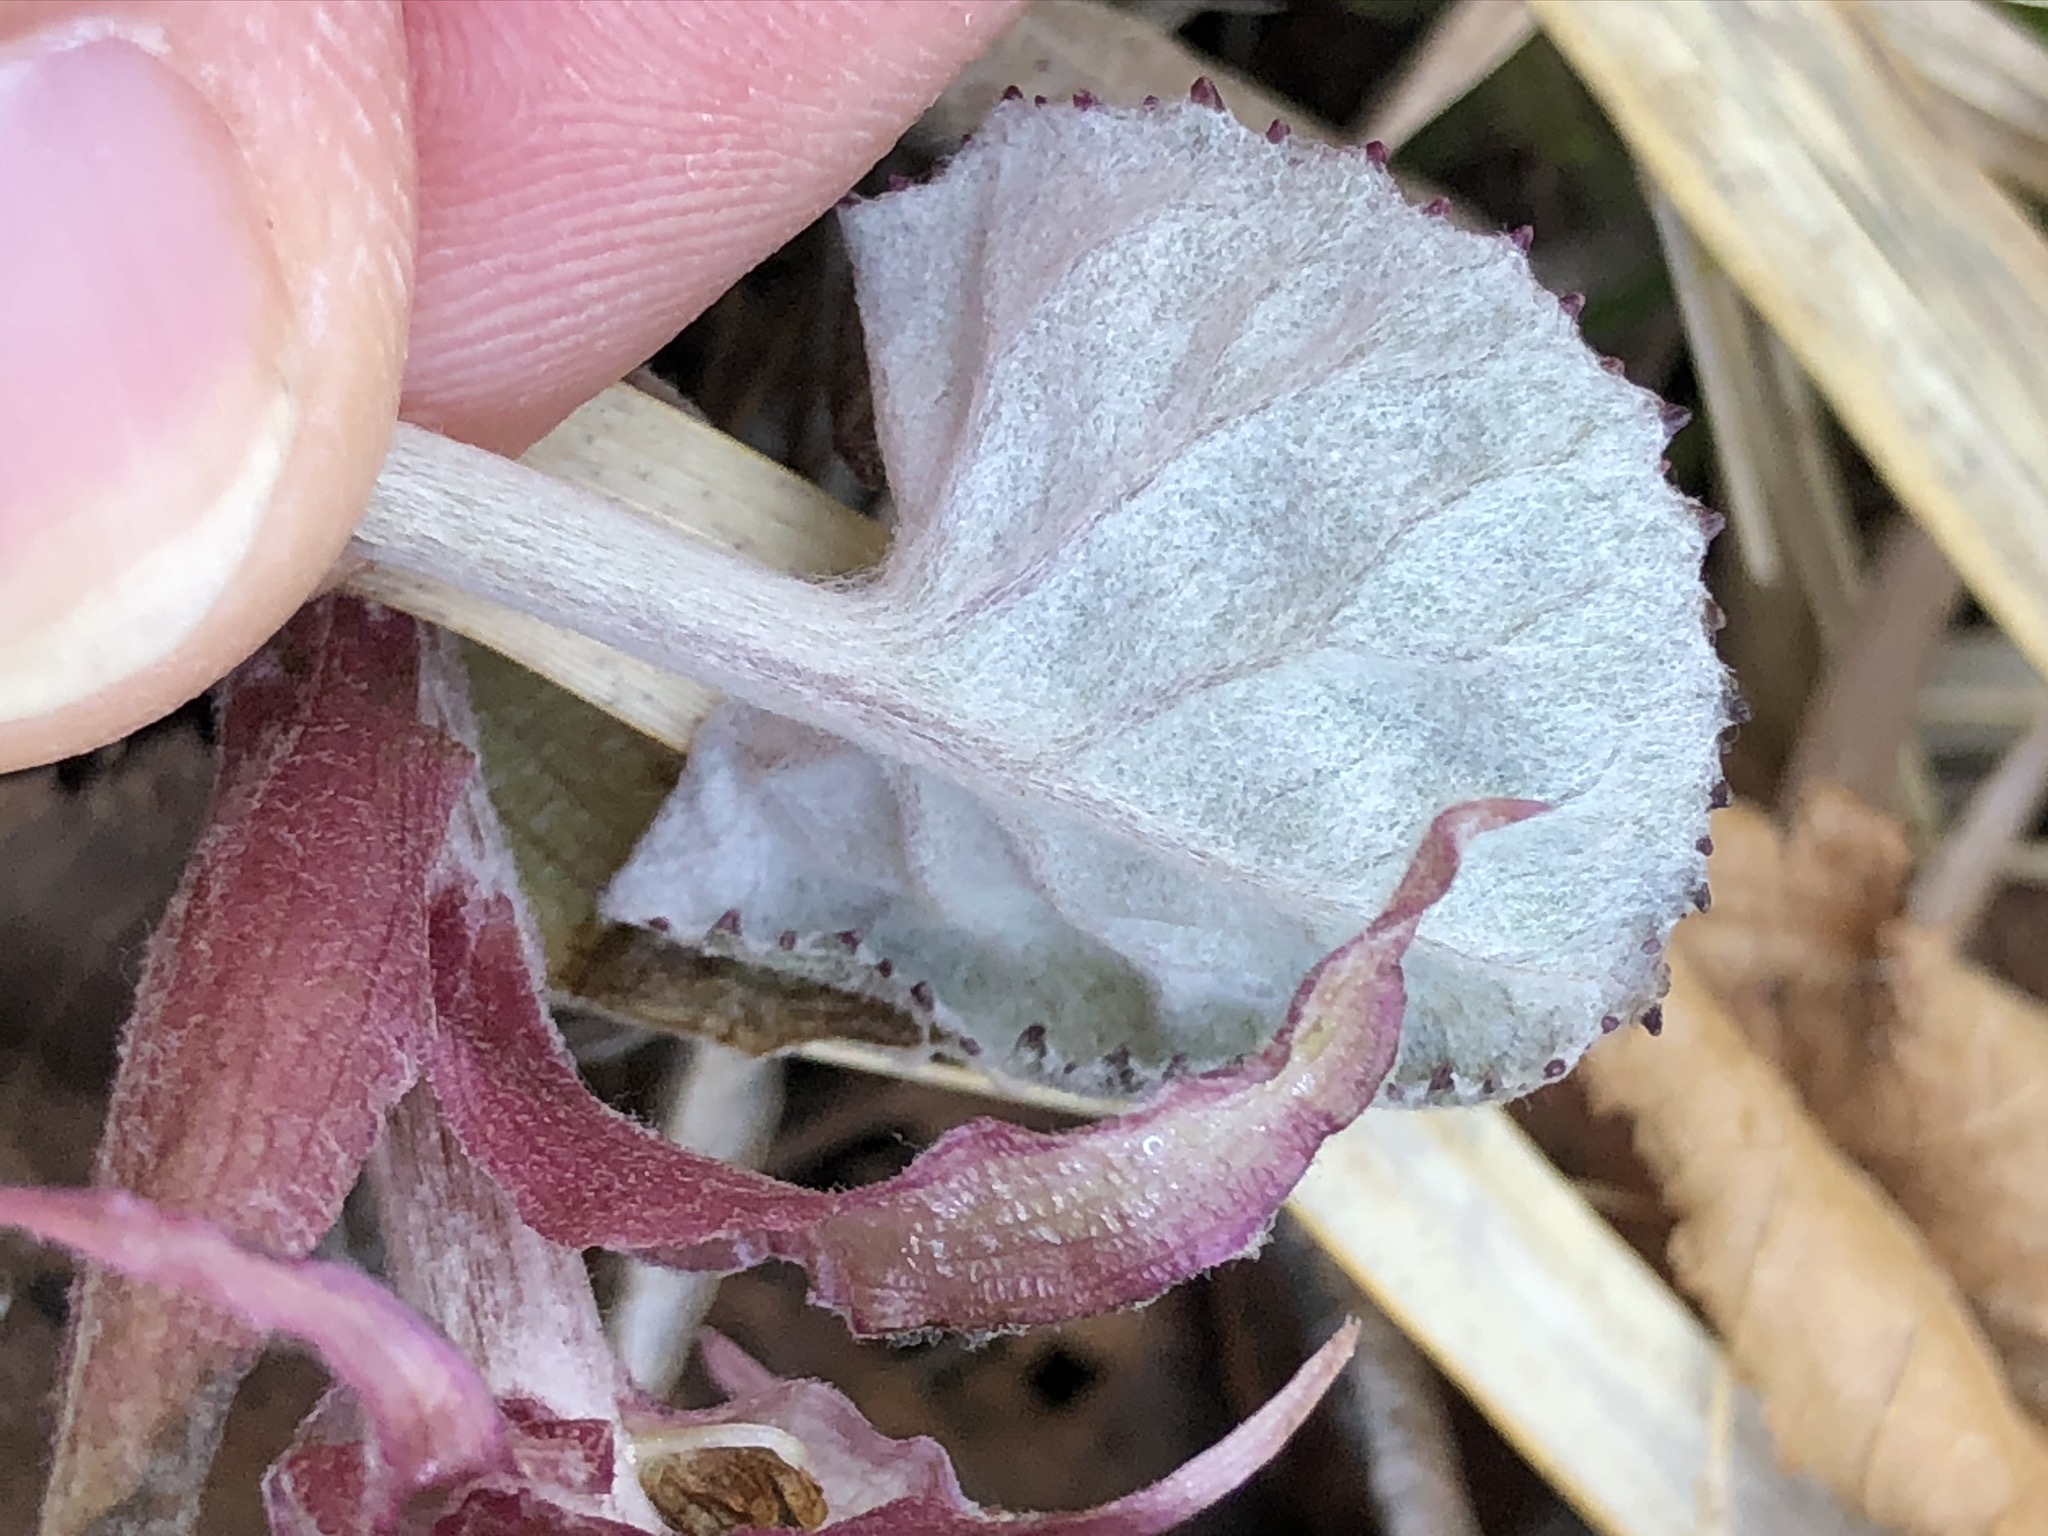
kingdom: Plantae
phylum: Tracheophyta
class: Magnoliopsida
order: Asterales
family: Asteraceae
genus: Petasites
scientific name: Petasites paradoxus
